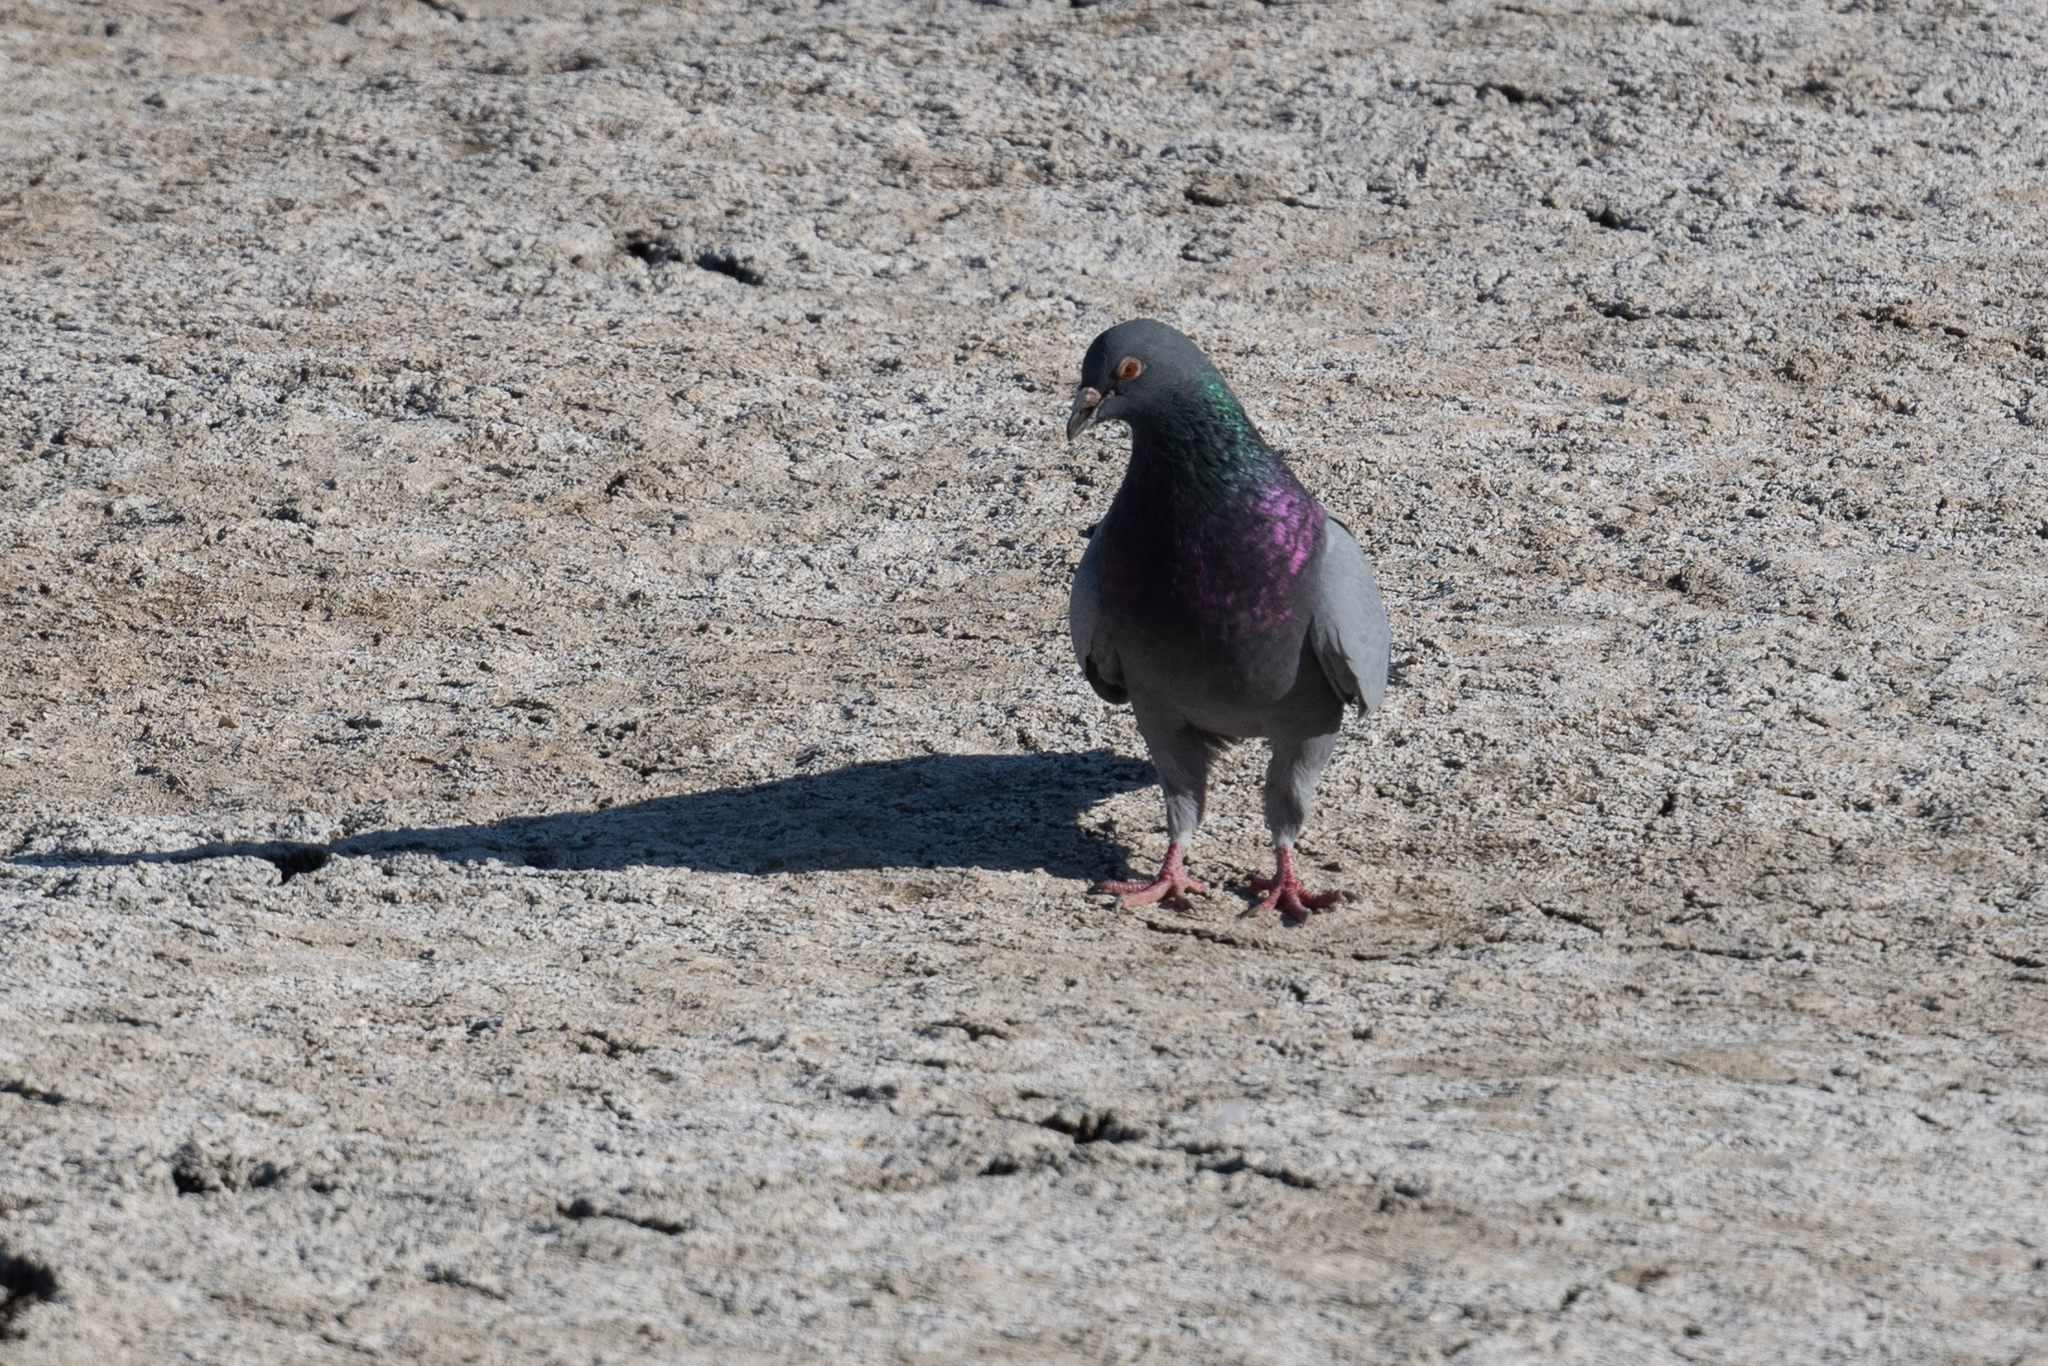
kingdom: Animalia
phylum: Chordata
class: Aves
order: Columbiformes
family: Columbidae
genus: Columba
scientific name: Columba livia
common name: Rock pigeon
